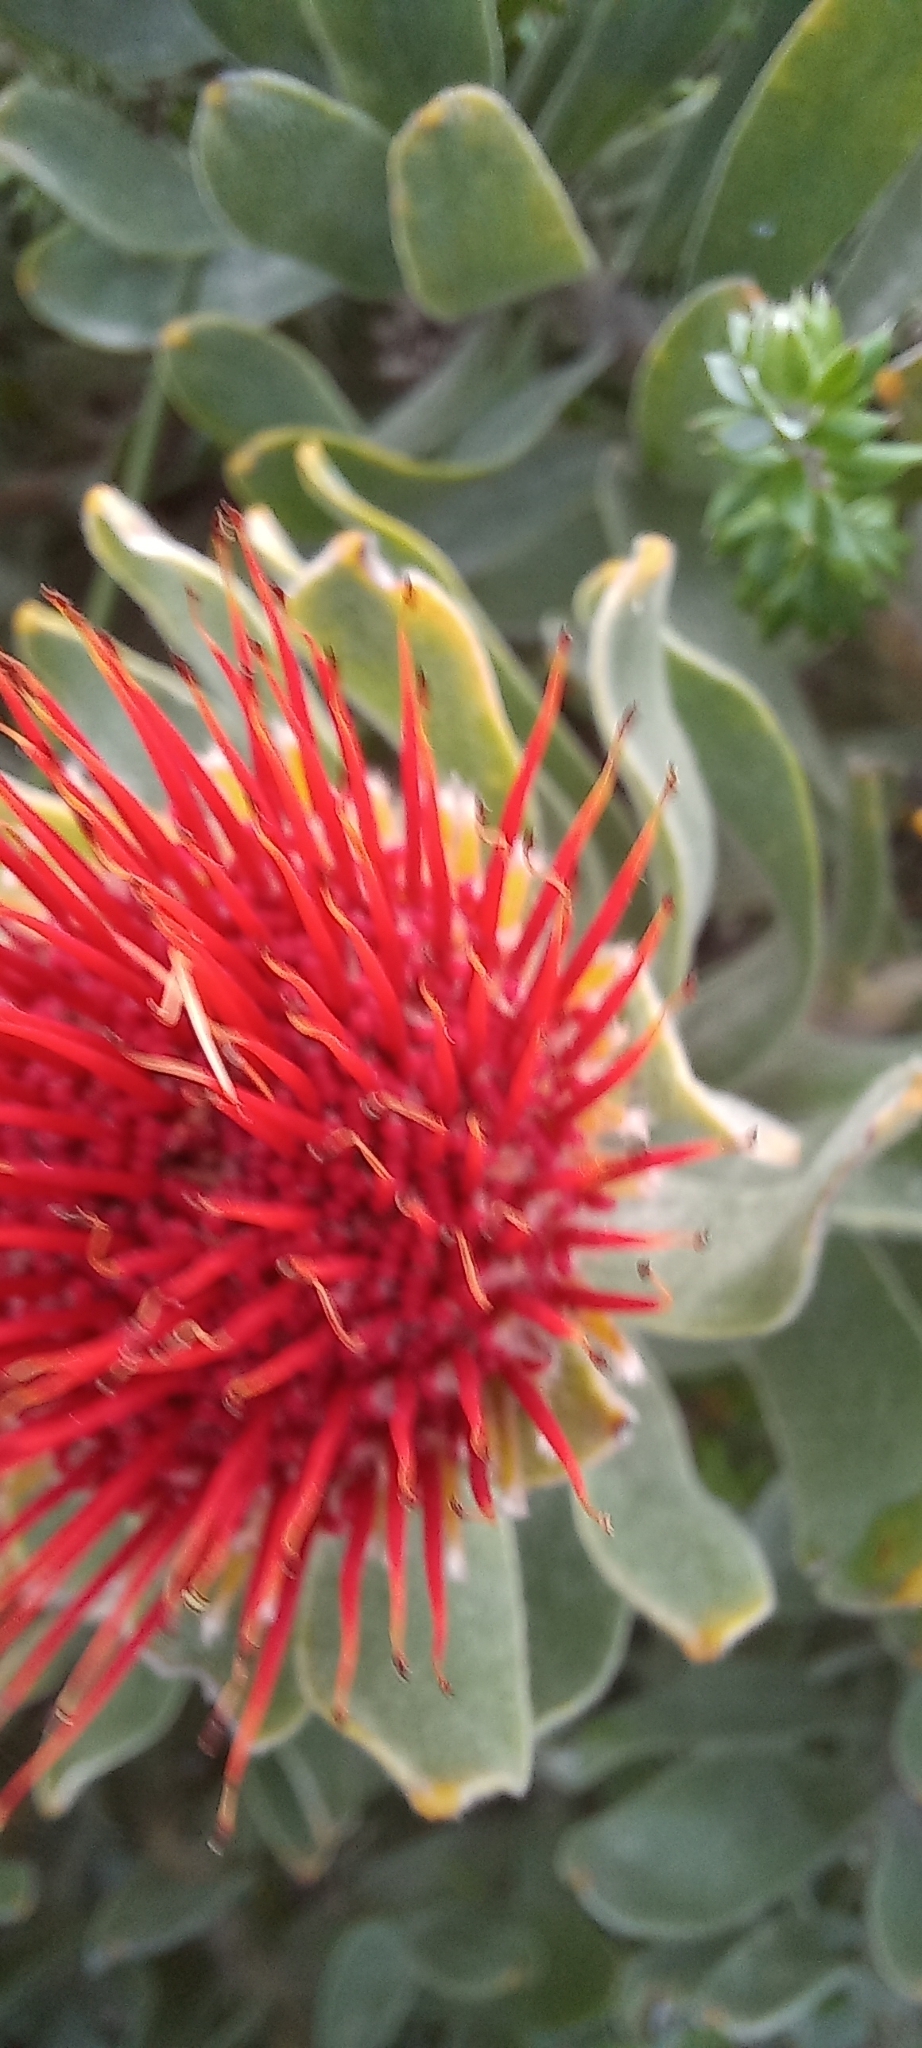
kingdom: Plantae
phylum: Tracheophyta
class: Magnoliopsida
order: Proteales
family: Proteaceae
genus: Leucospermum
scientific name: Leucospermum oleifolium
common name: Matches
